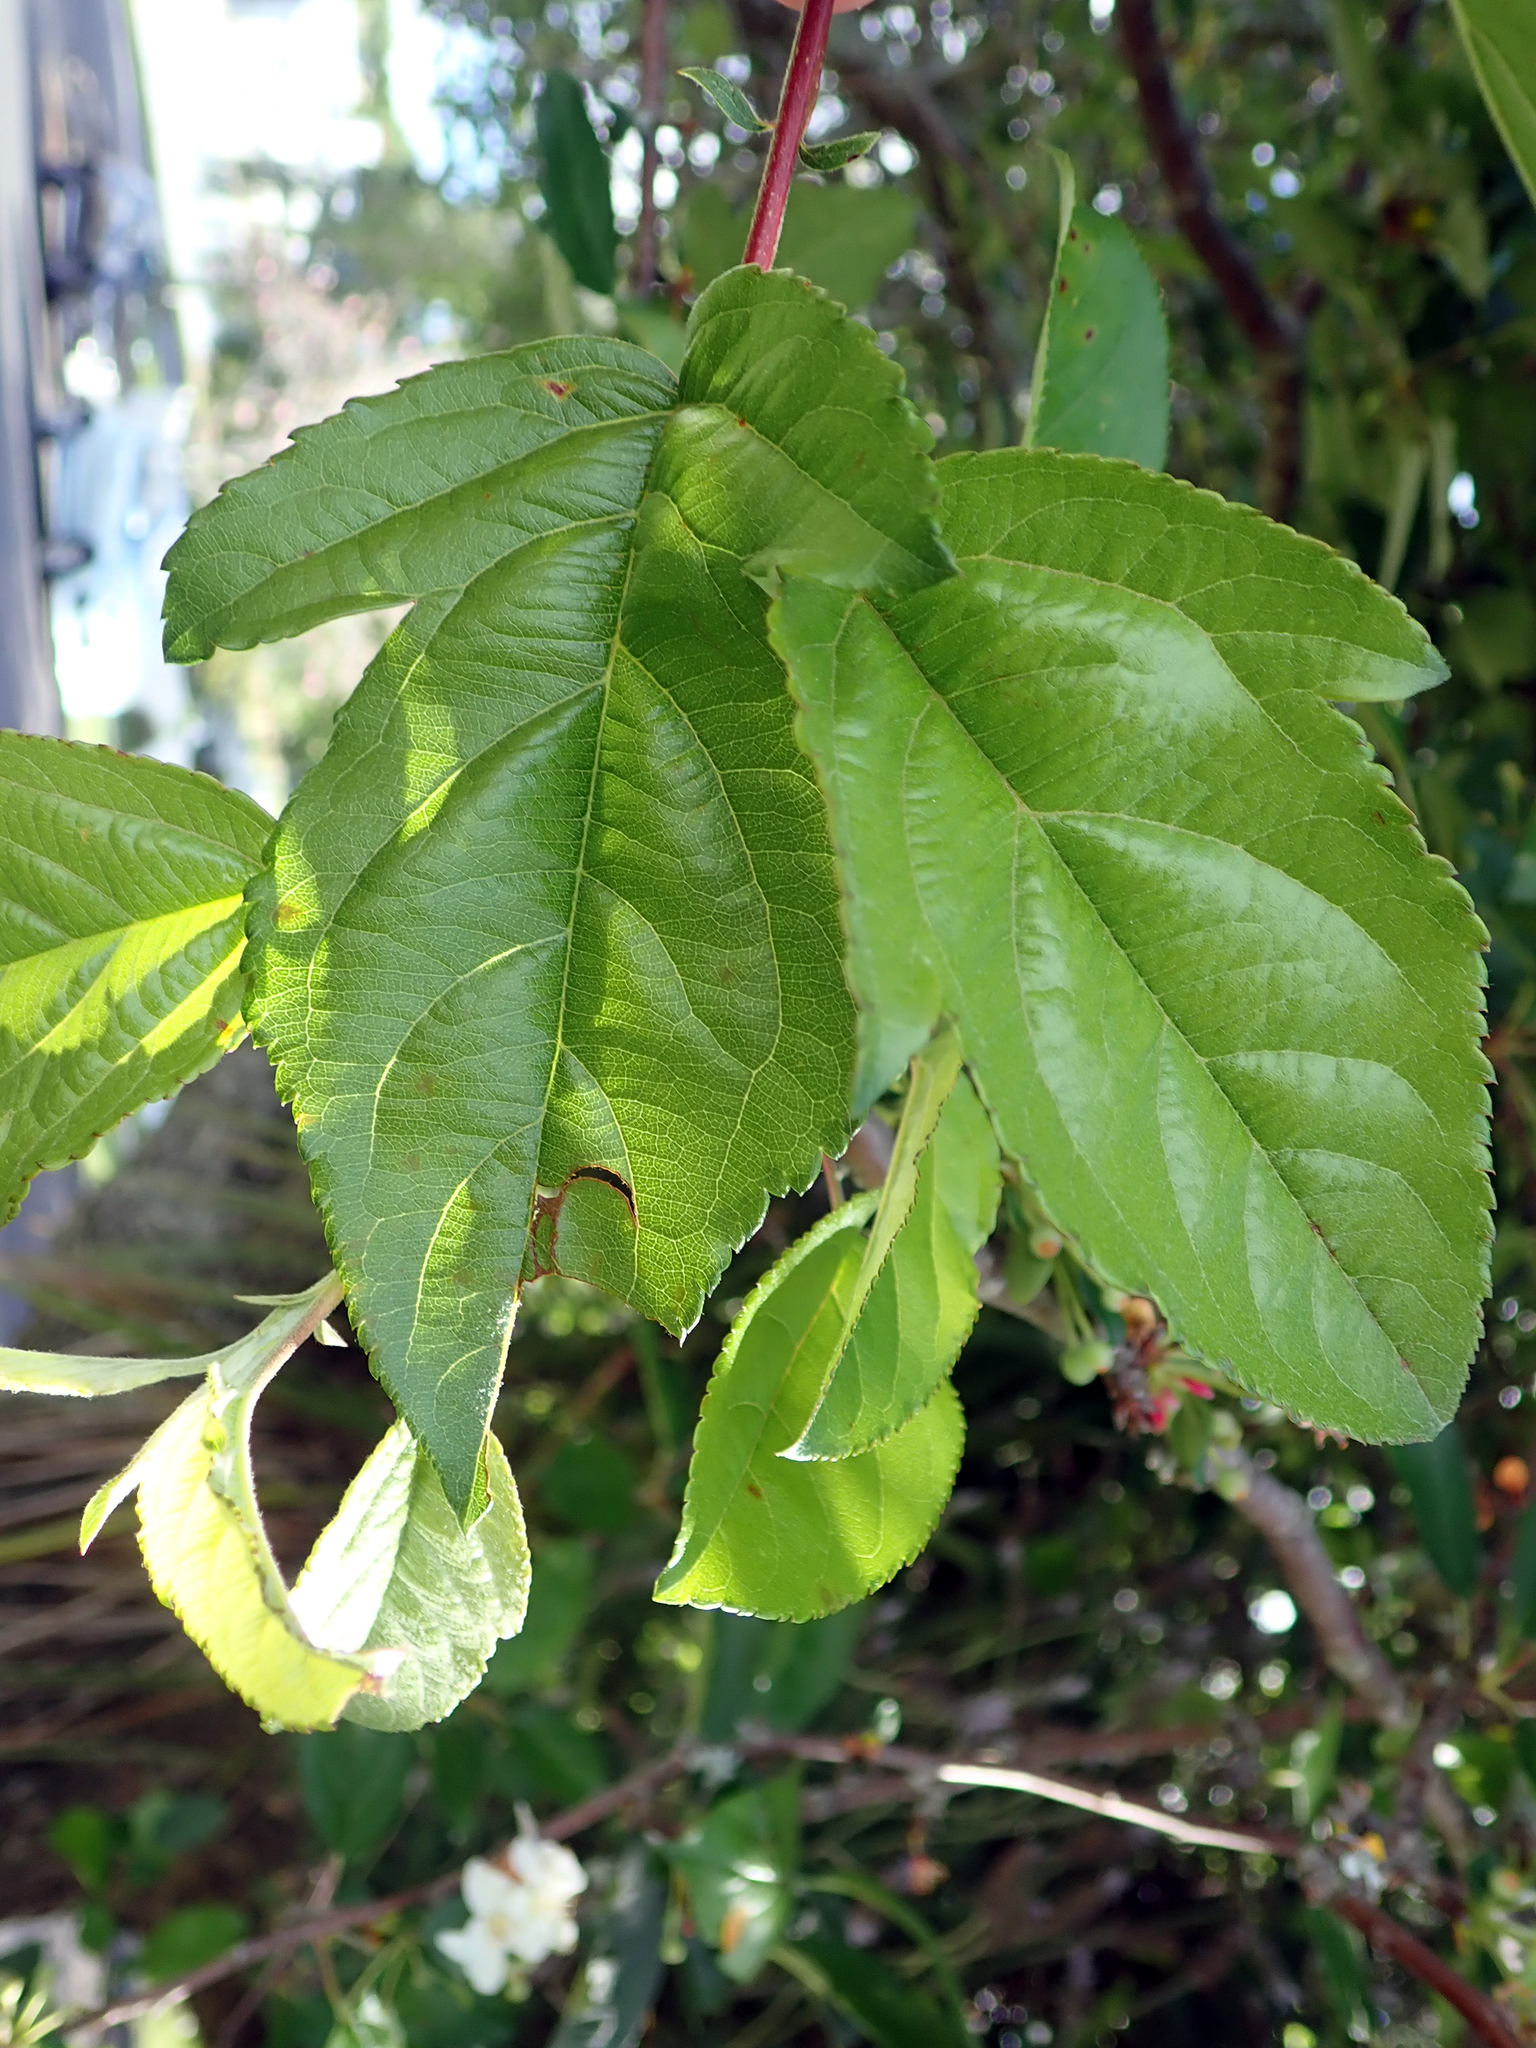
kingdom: Plantae
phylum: Tracheophyta
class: Magnoliopsida
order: Rosales
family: Rosaceae
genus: Malus
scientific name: Malus toringo
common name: Japanese crabapple
